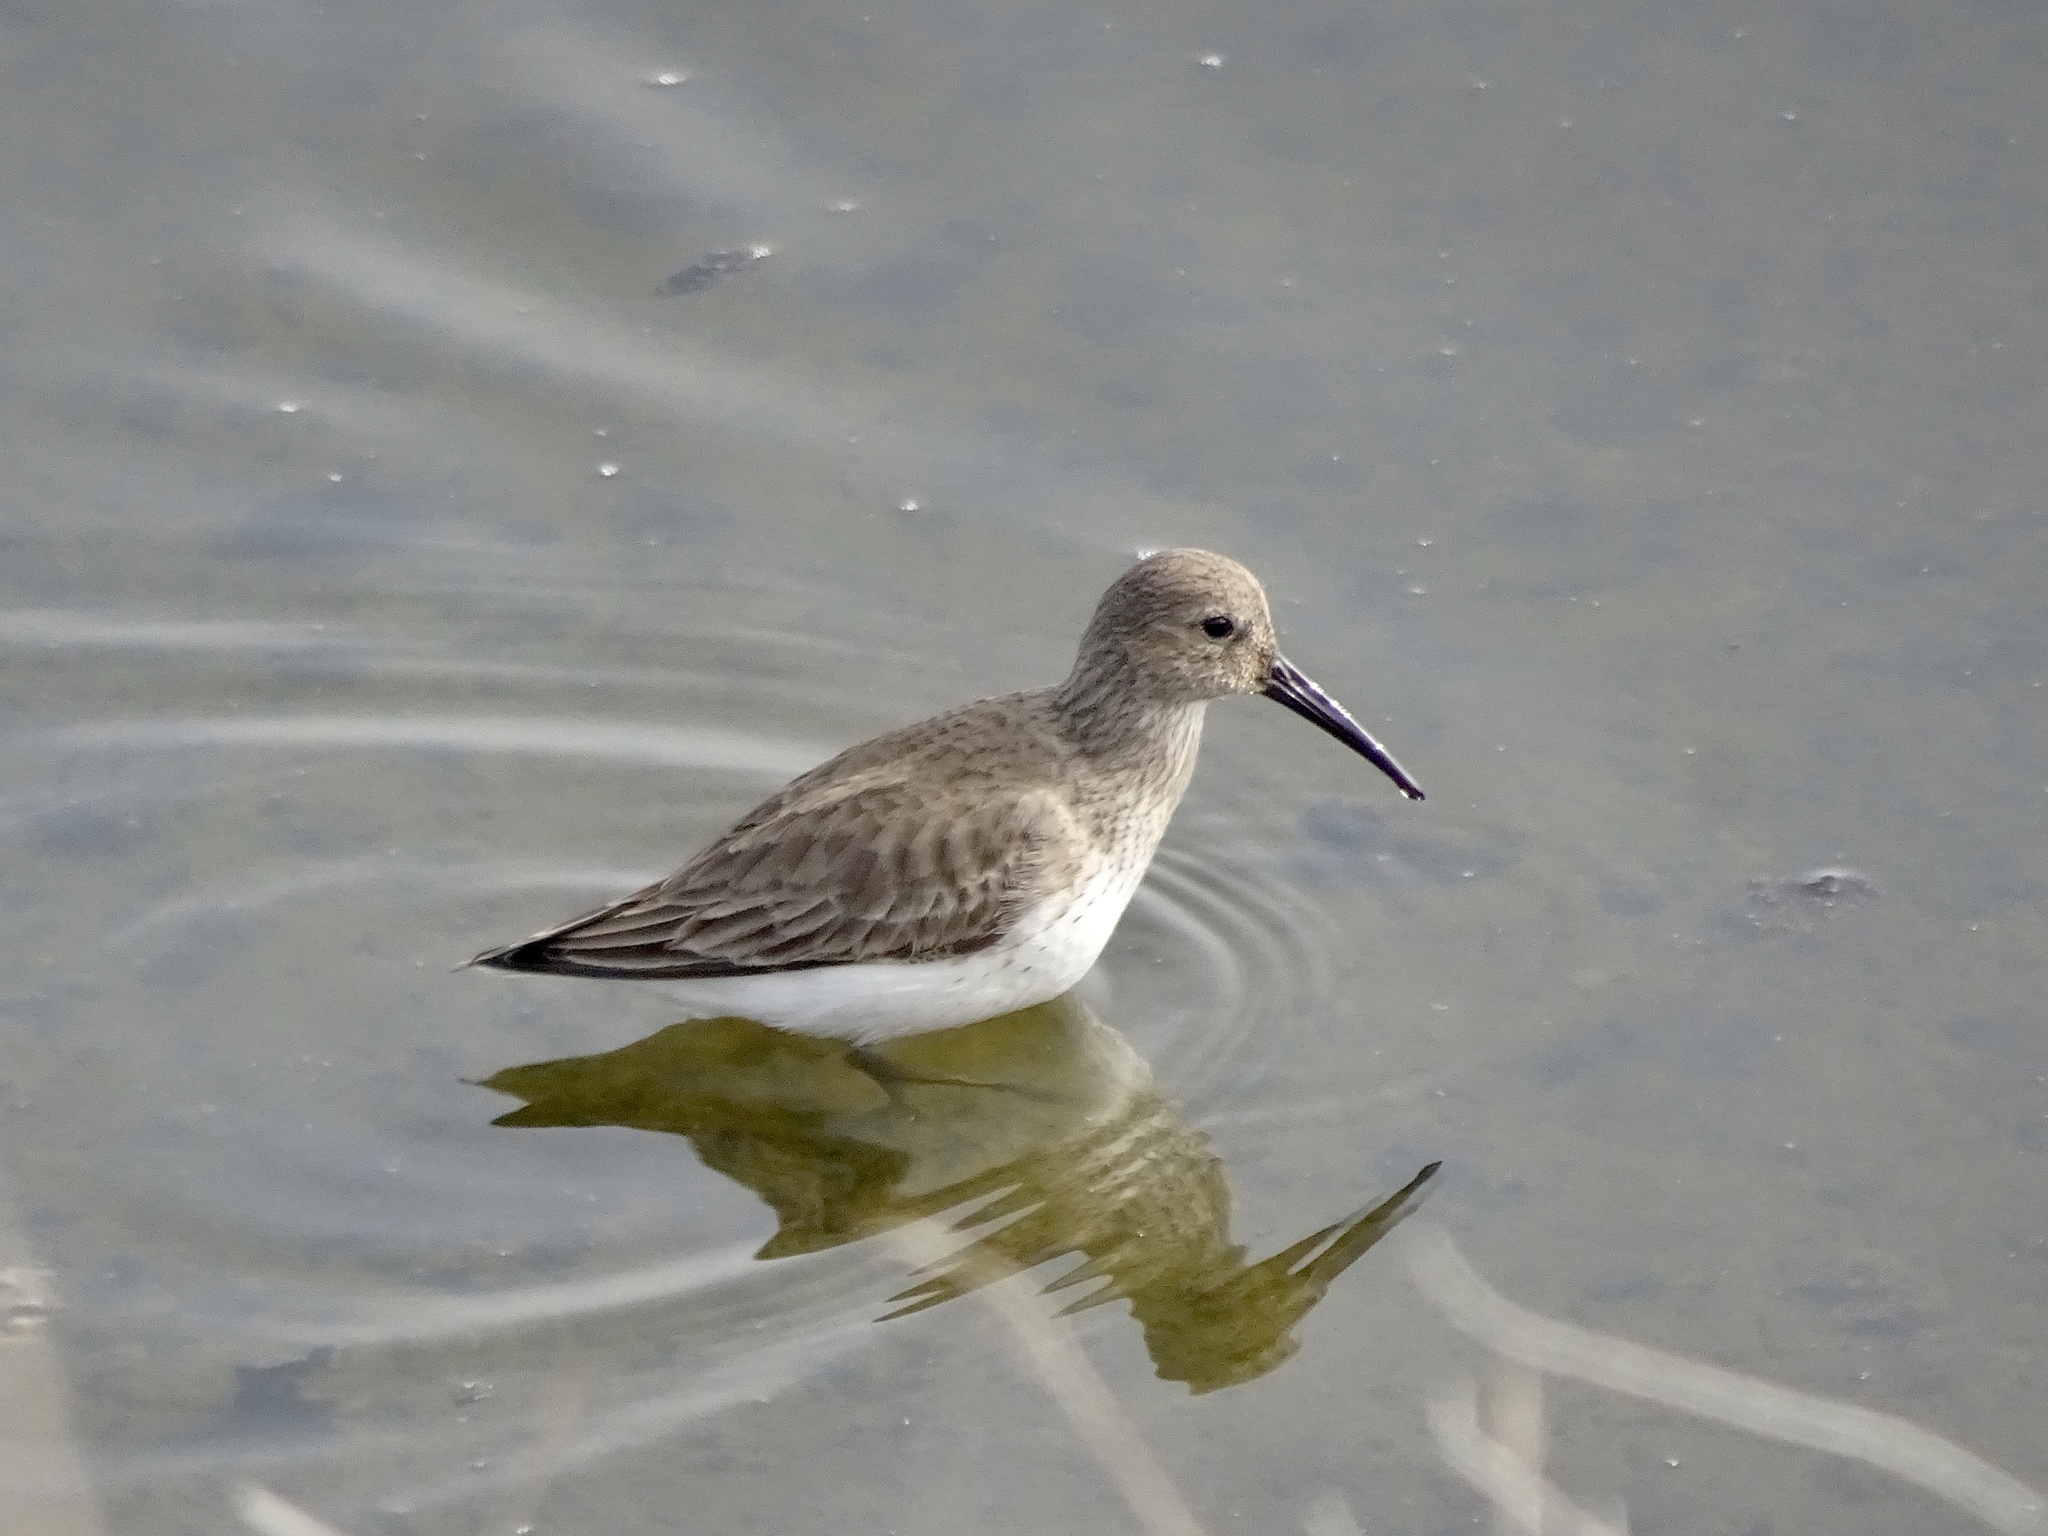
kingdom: Animalia
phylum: Chordata
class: Aves
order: Charadriiformes
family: Scolopacidae
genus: Calidris
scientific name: Calidris alpina
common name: Dunlin
